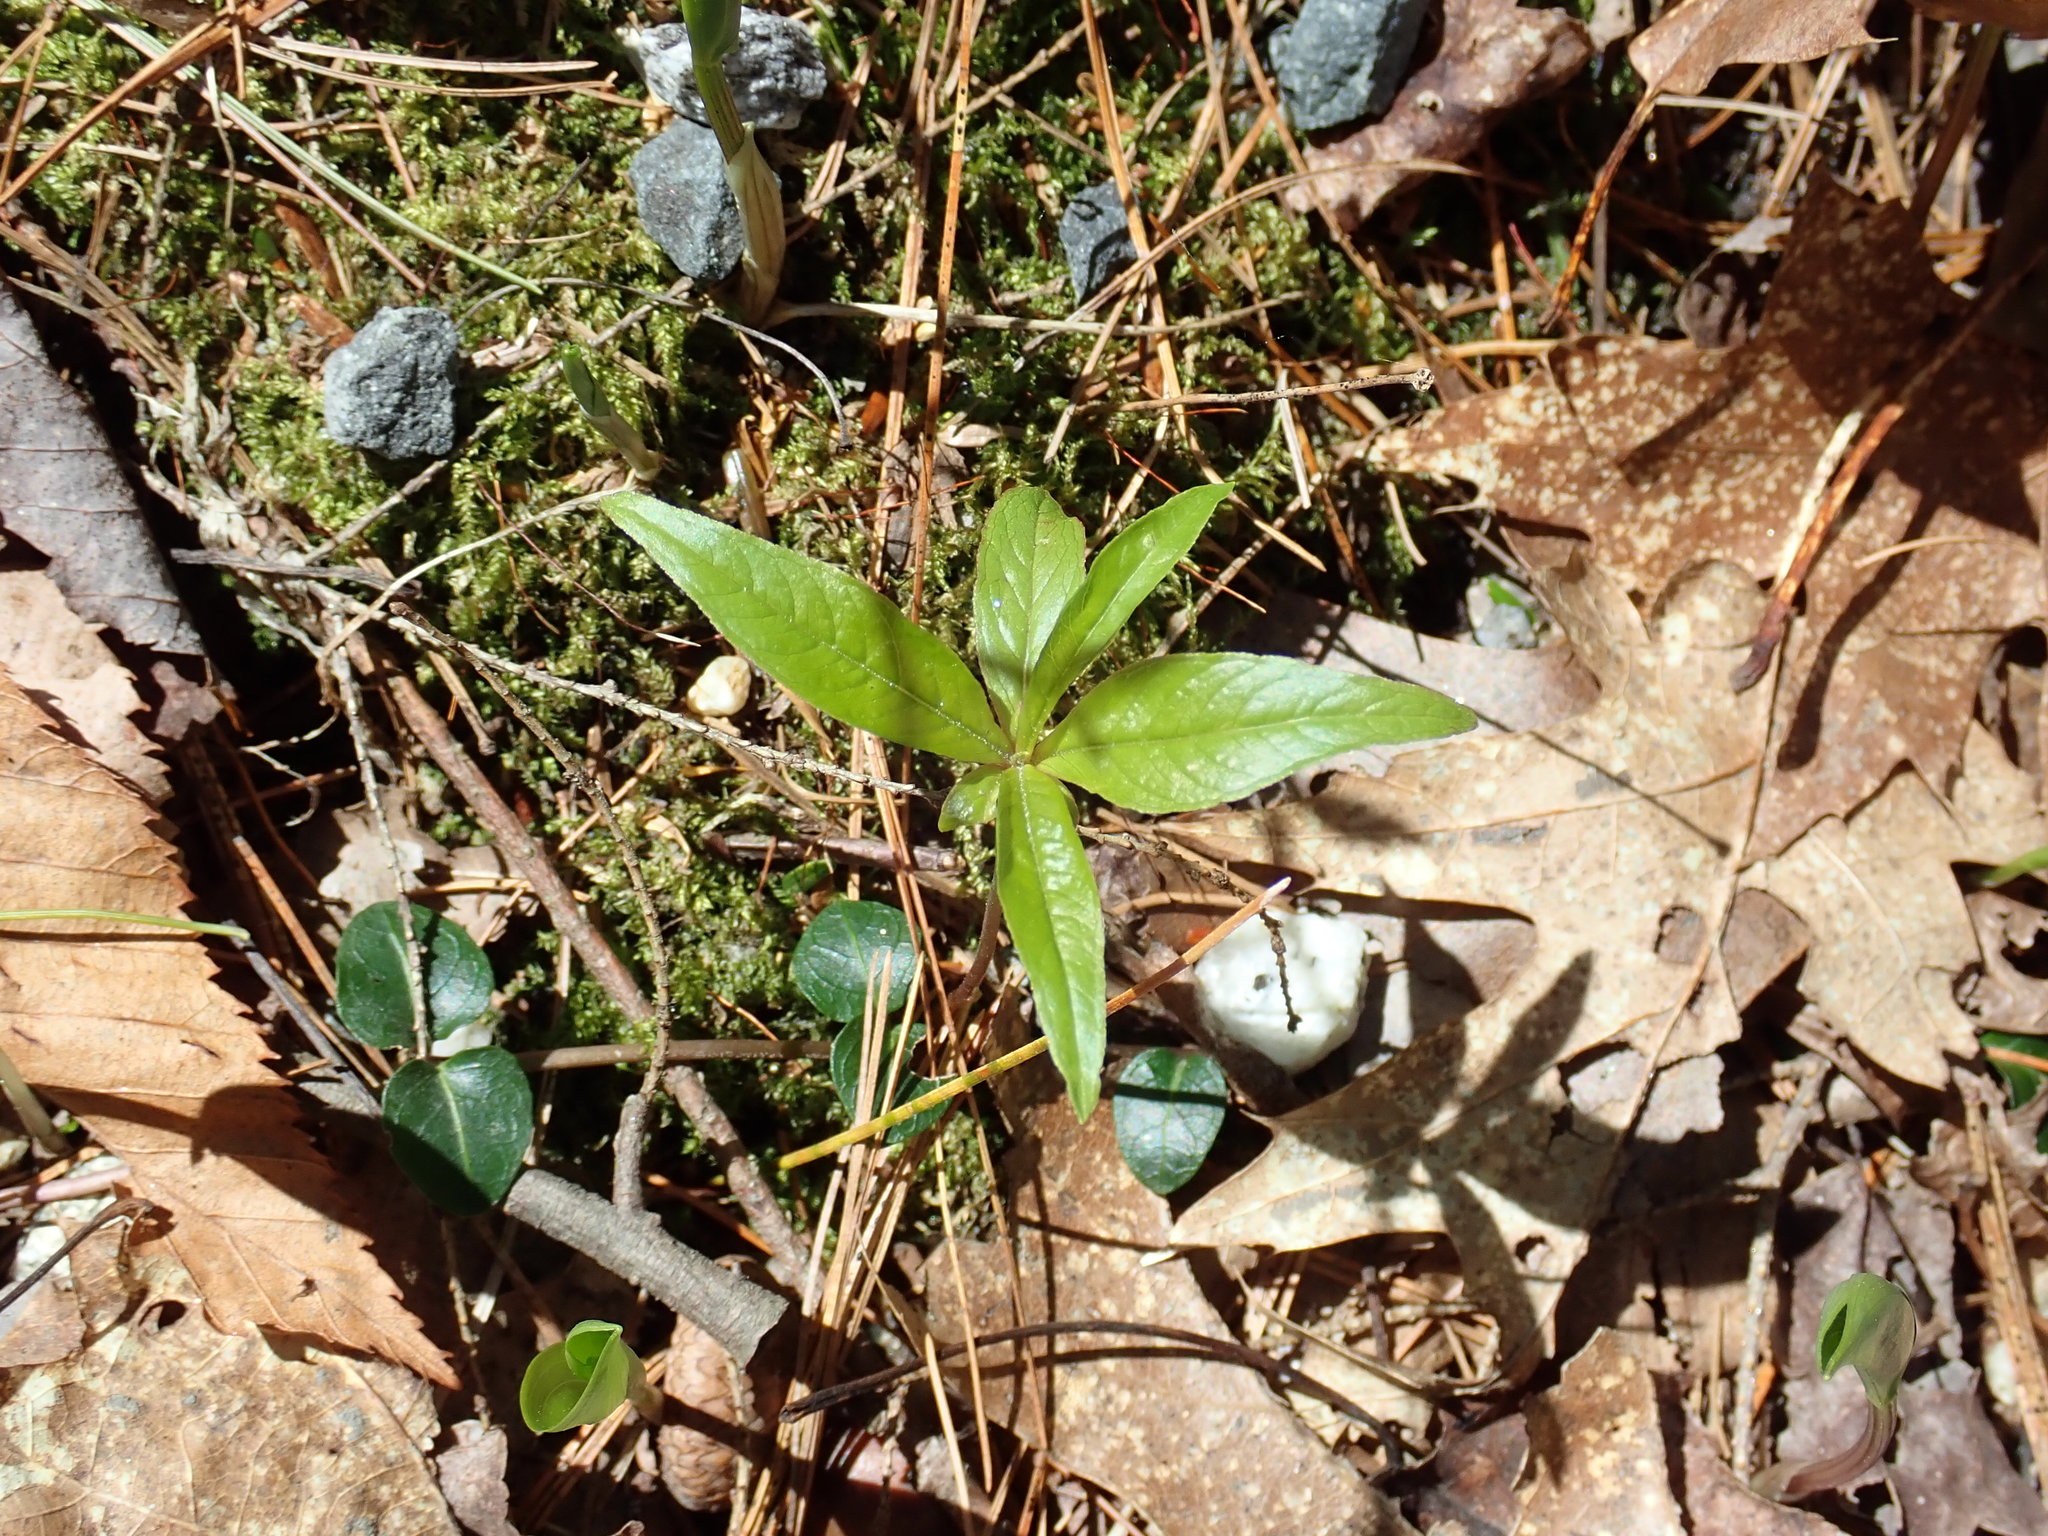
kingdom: Plantae
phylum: Tracheophyta
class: Magnoliopsida
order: Ericales
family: Primulaceae
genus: Lysimachia
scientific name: Lysimachia borealis
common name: American starflower
